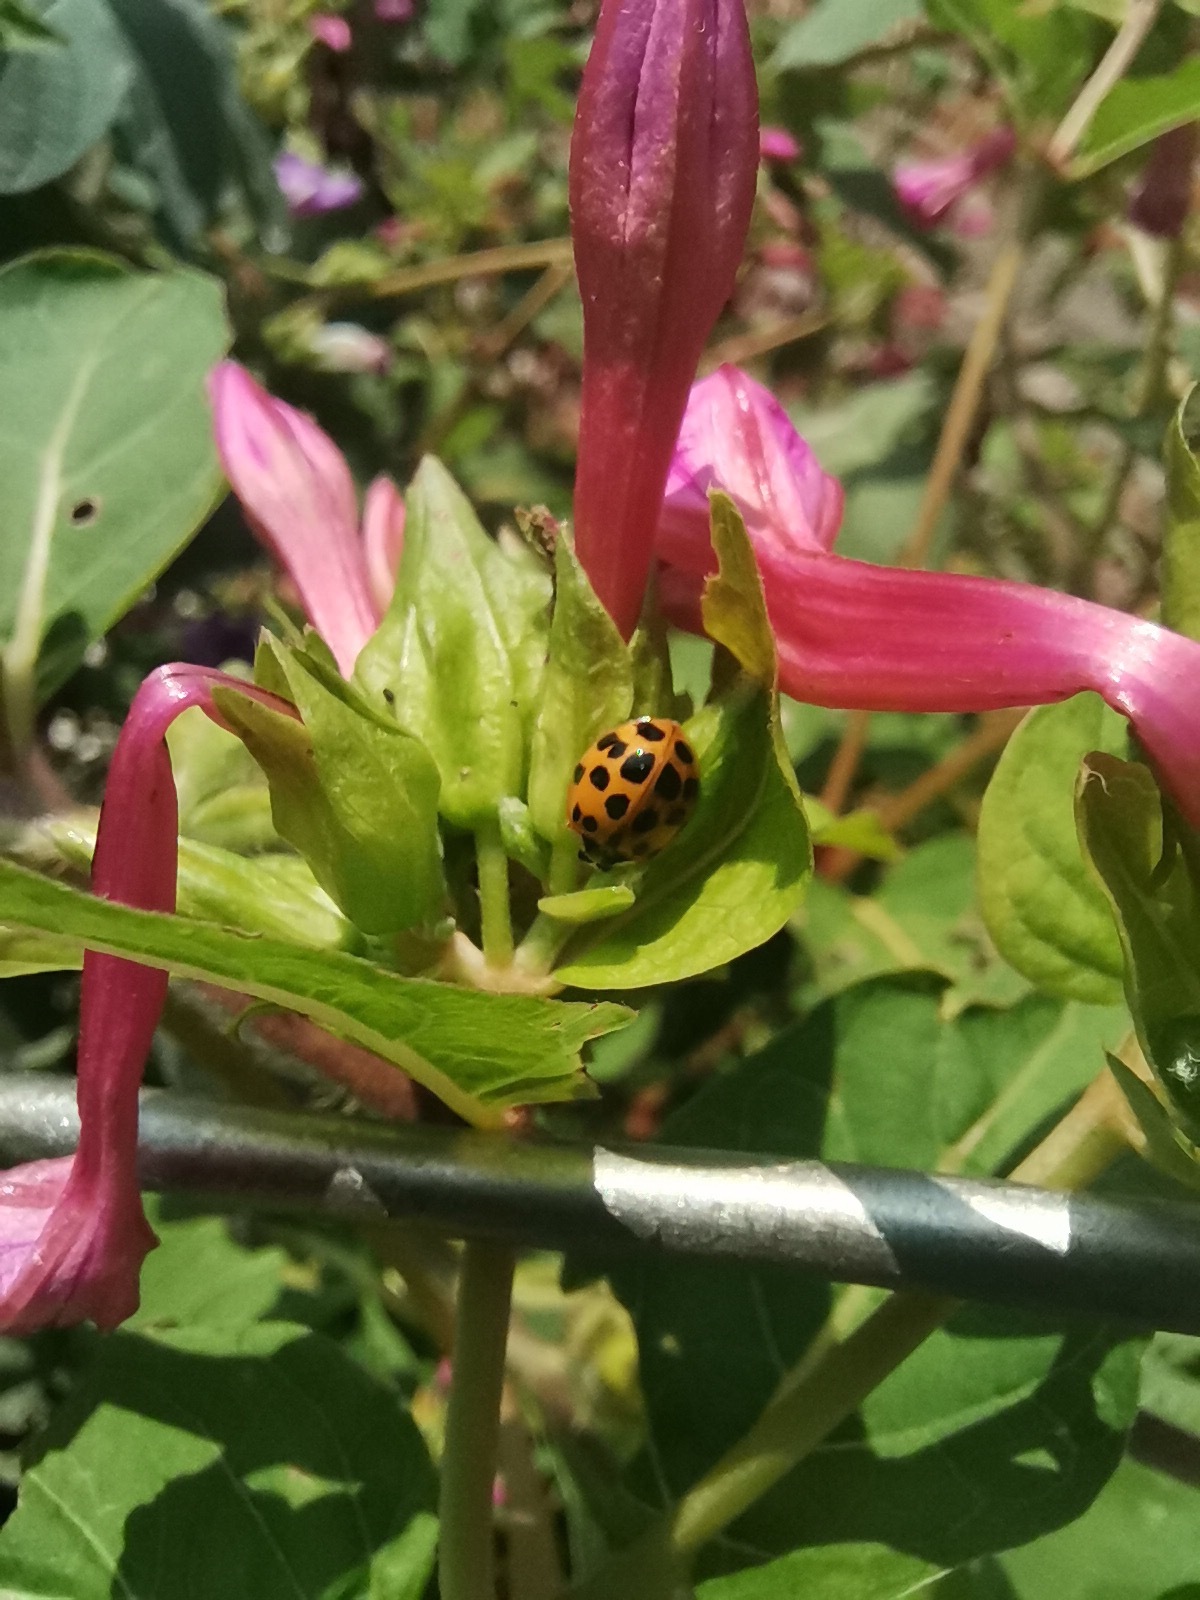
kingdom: Animalia
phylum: Arthropoda
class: Insecta
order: Coleoptera
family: Coccinellidae
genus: Harmonia
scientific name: Harmonia axyridis
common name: Harlequin ladybird
